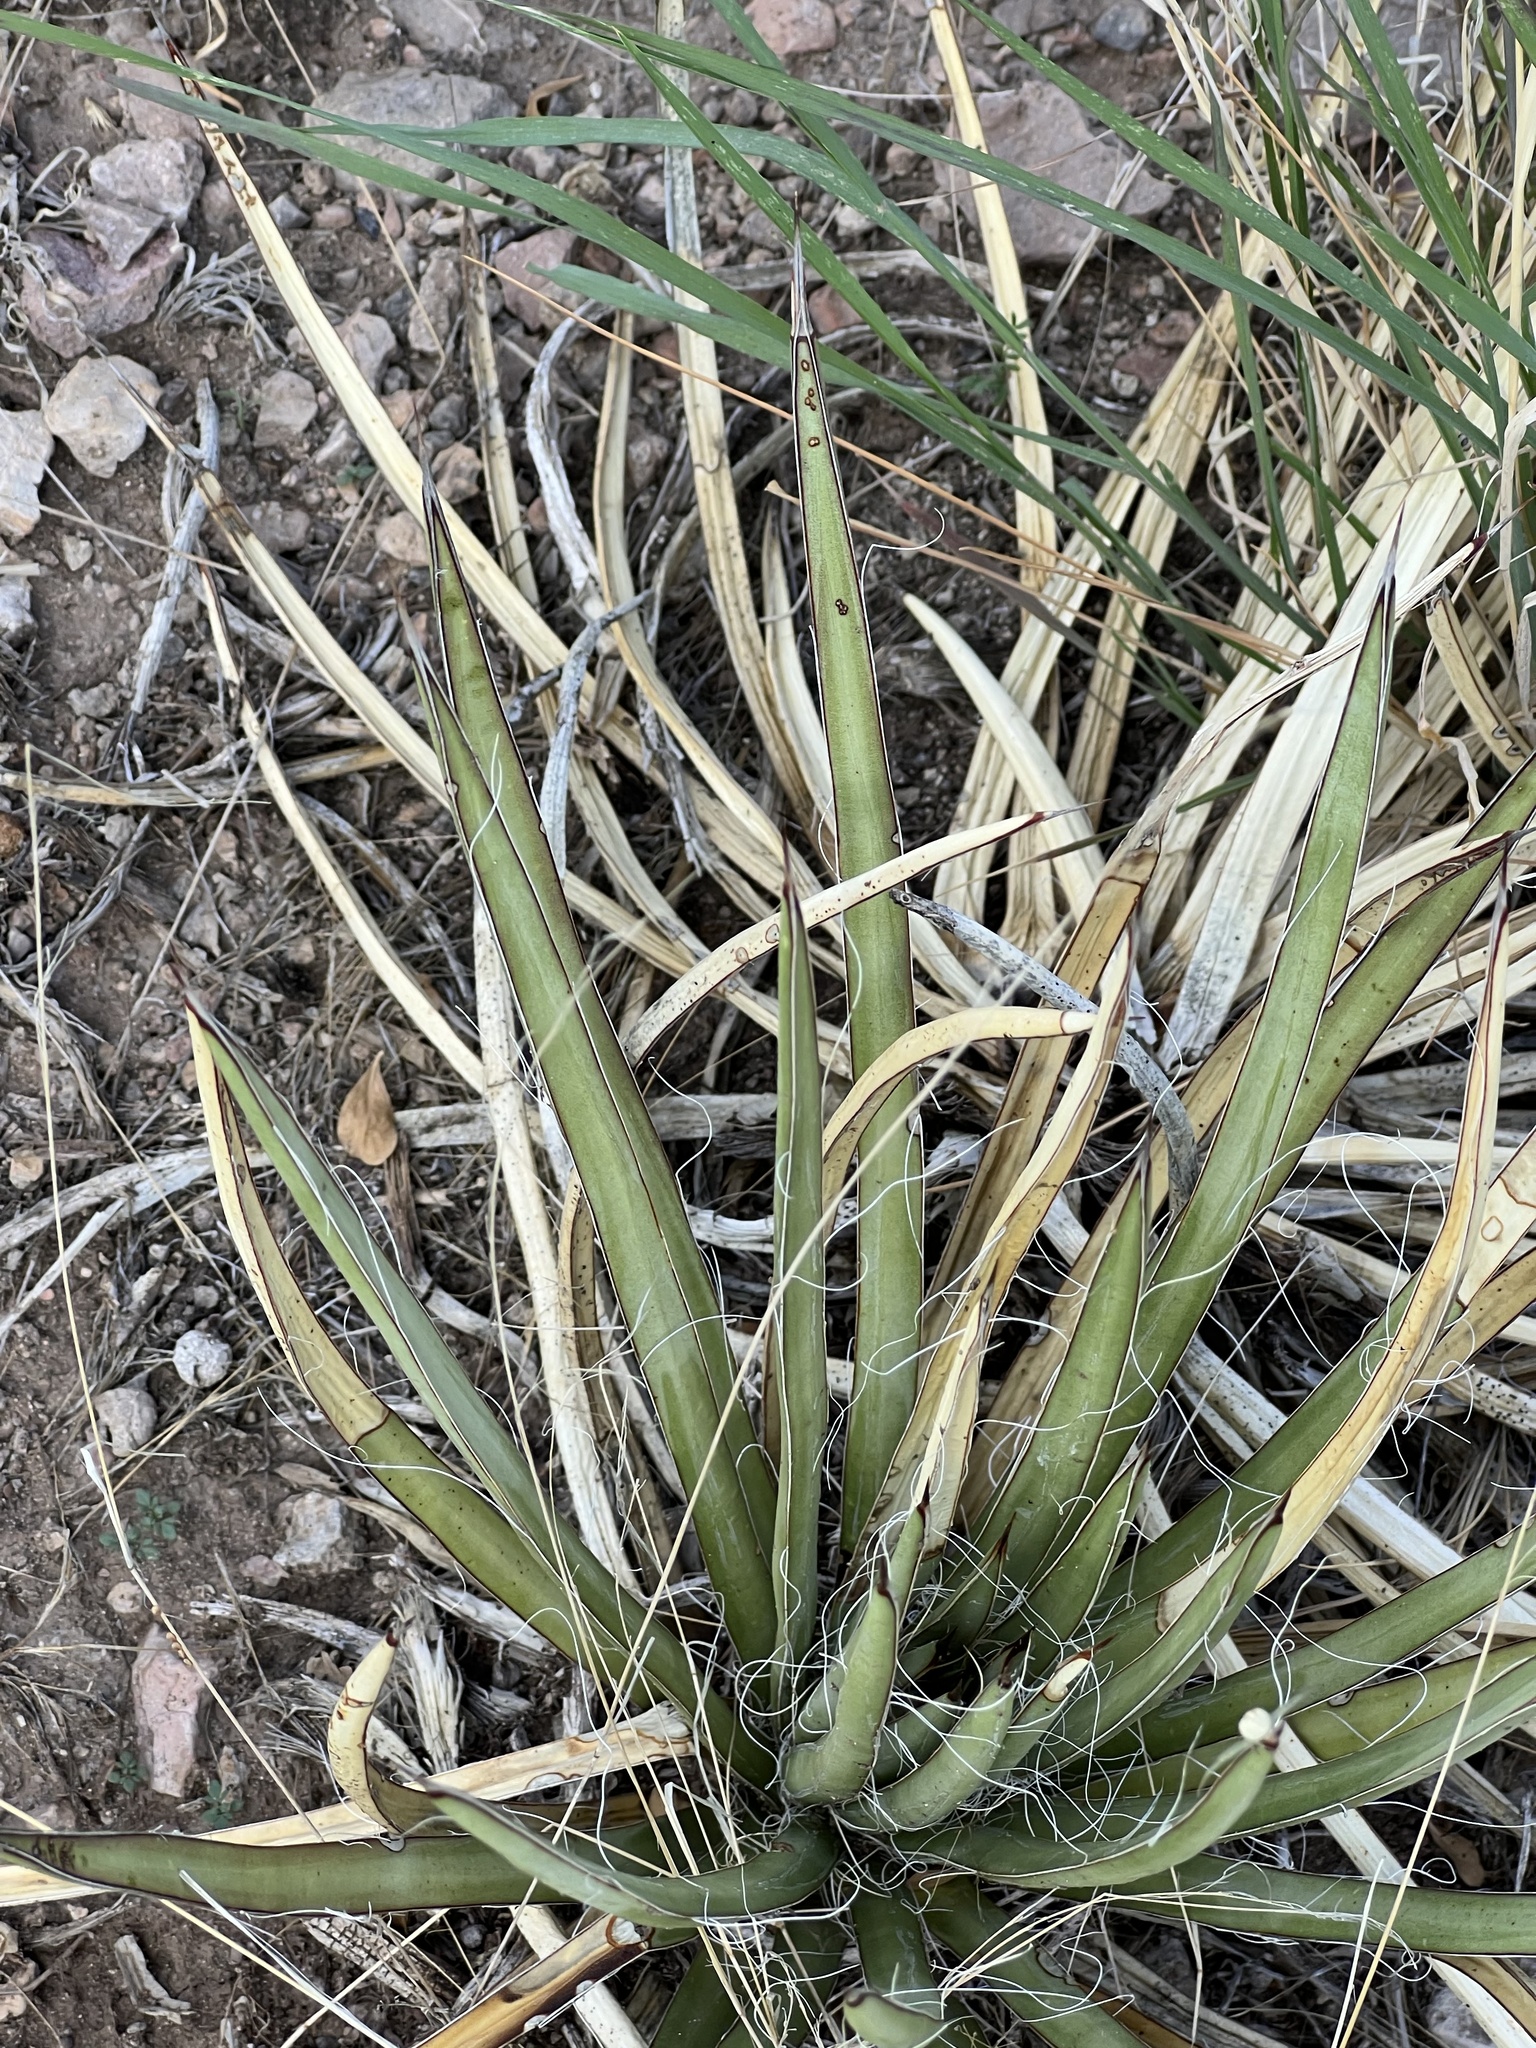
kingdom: Plantae
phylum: Tracheophyta
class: Liliopsida
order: Asparagales
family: Asparagaceae
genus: Agave
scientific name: Agave schottii
